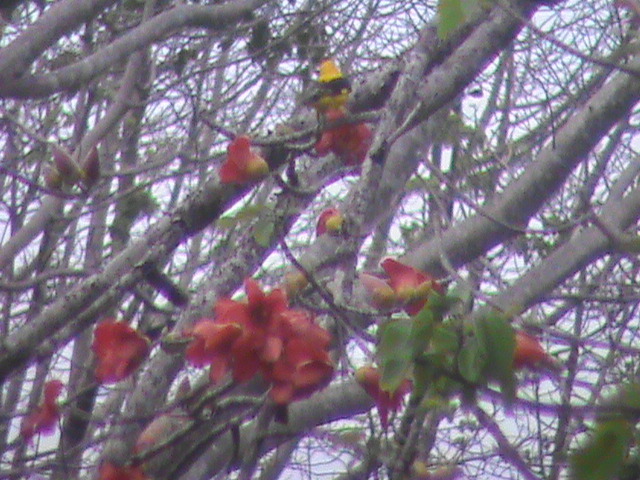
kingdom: Animalia
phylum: Chordata
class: Aves
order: Passeriformes
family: Oriolidae
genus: Oriolus
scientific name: Oriolus kundoo
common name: Indian golden oriole
